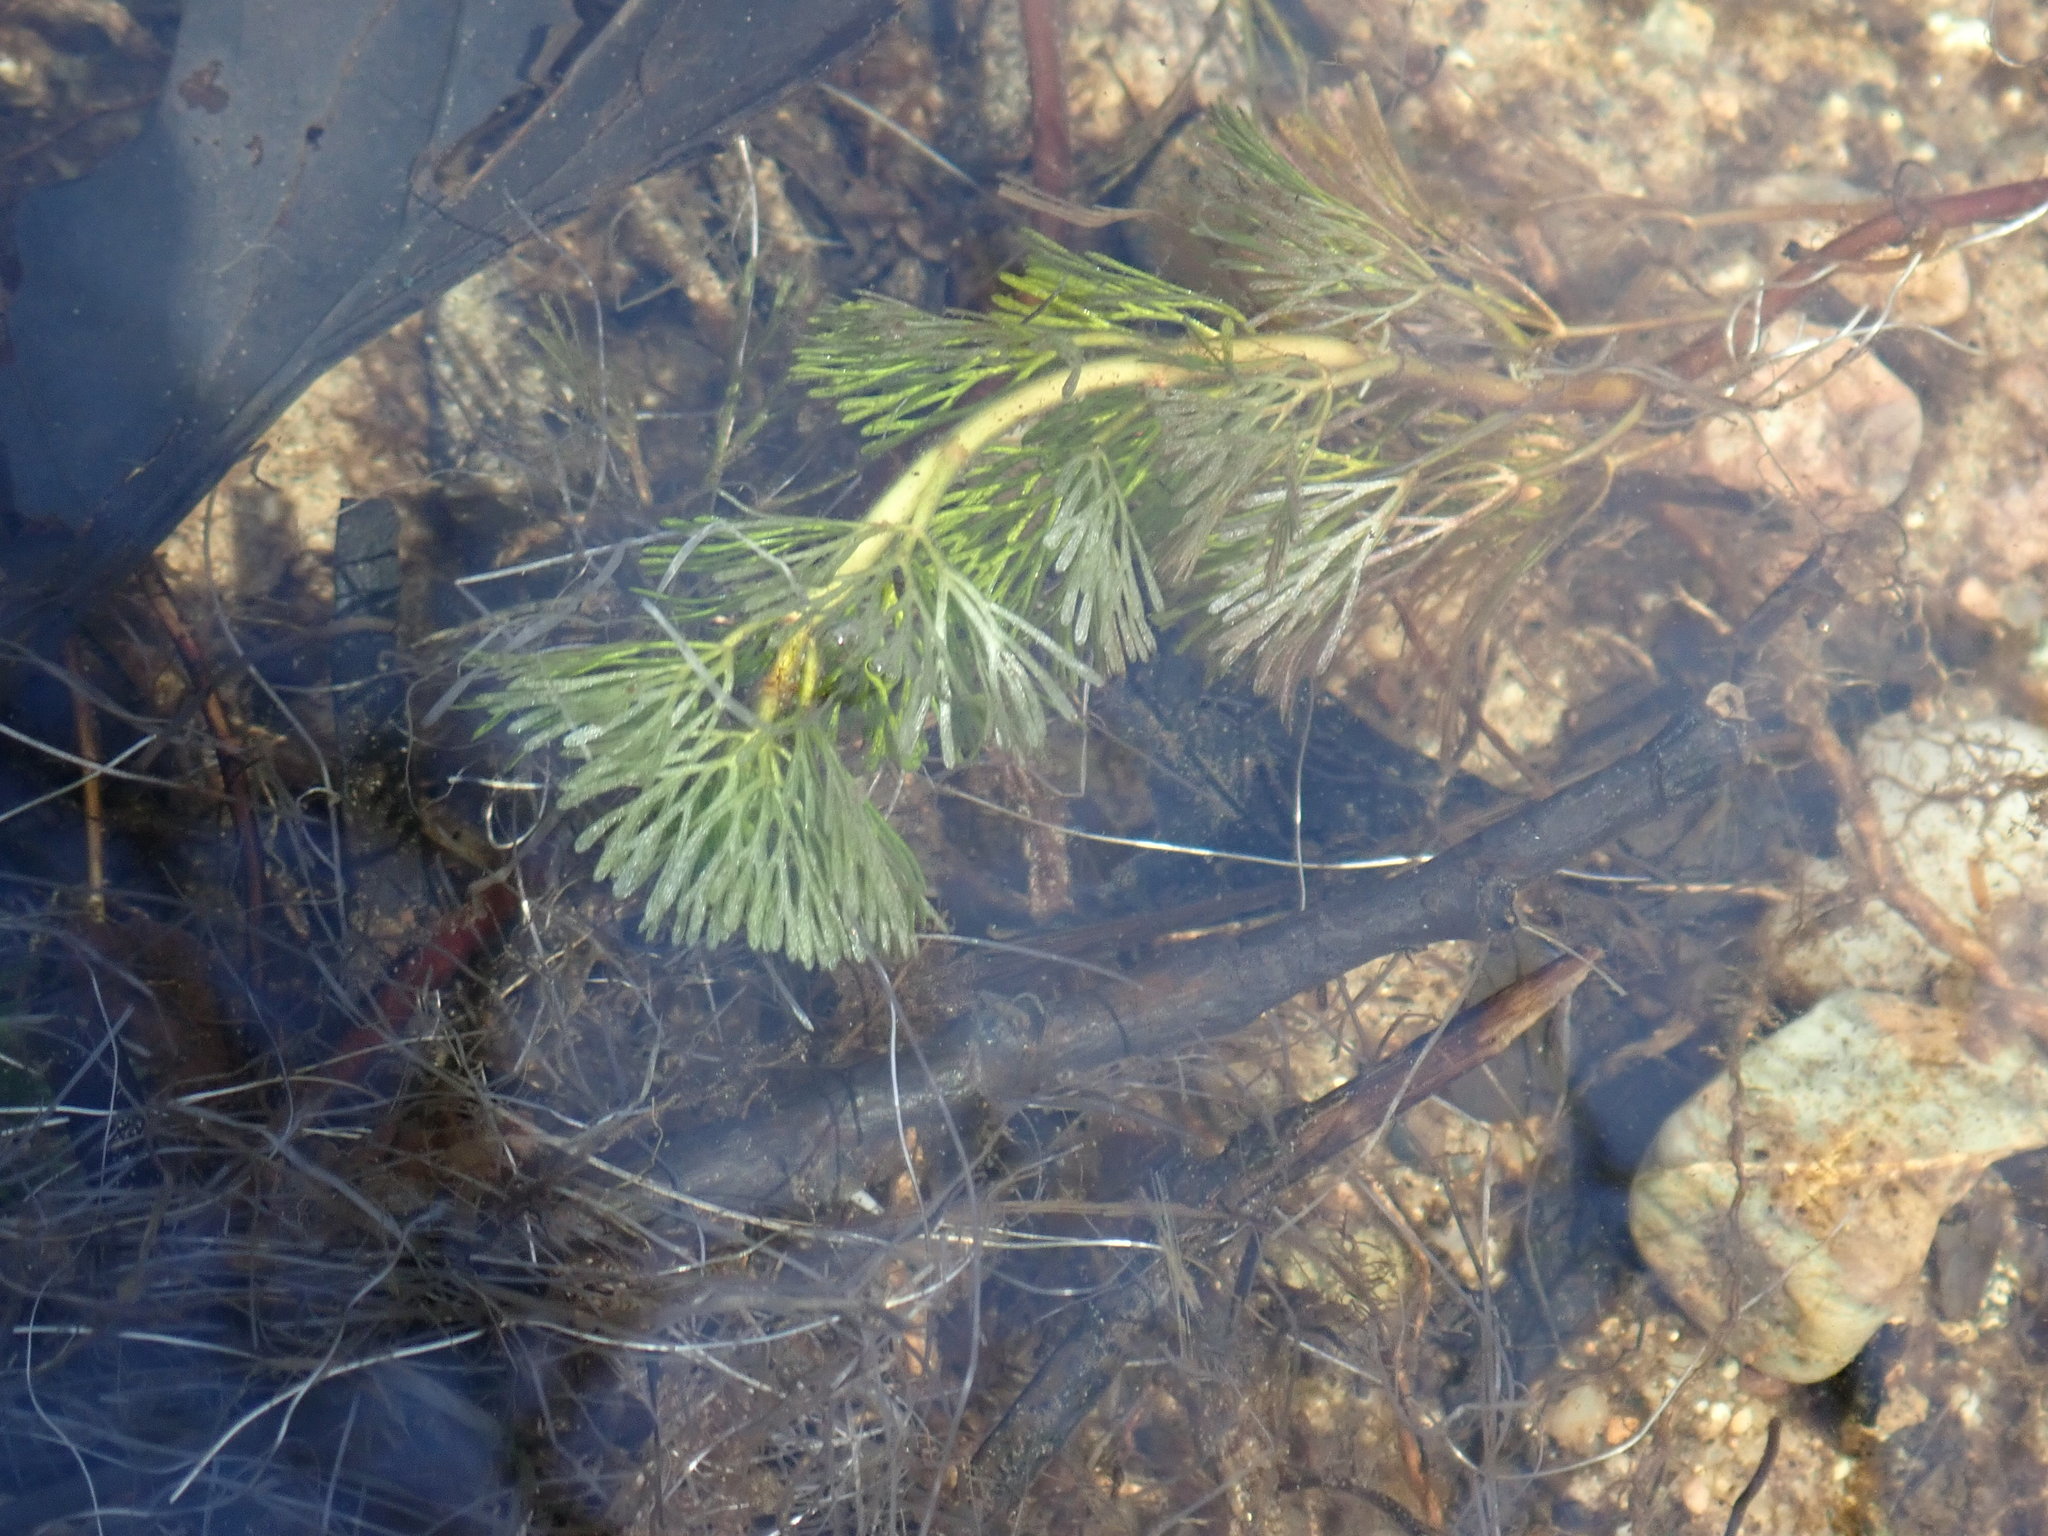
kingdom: Plantae
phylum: Tracheophyta
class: Magnoliopsida
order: Nymphaeales
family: Cabombaceae
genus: Cabomba
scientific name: Cabomba caroliniana
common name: Fanwort
